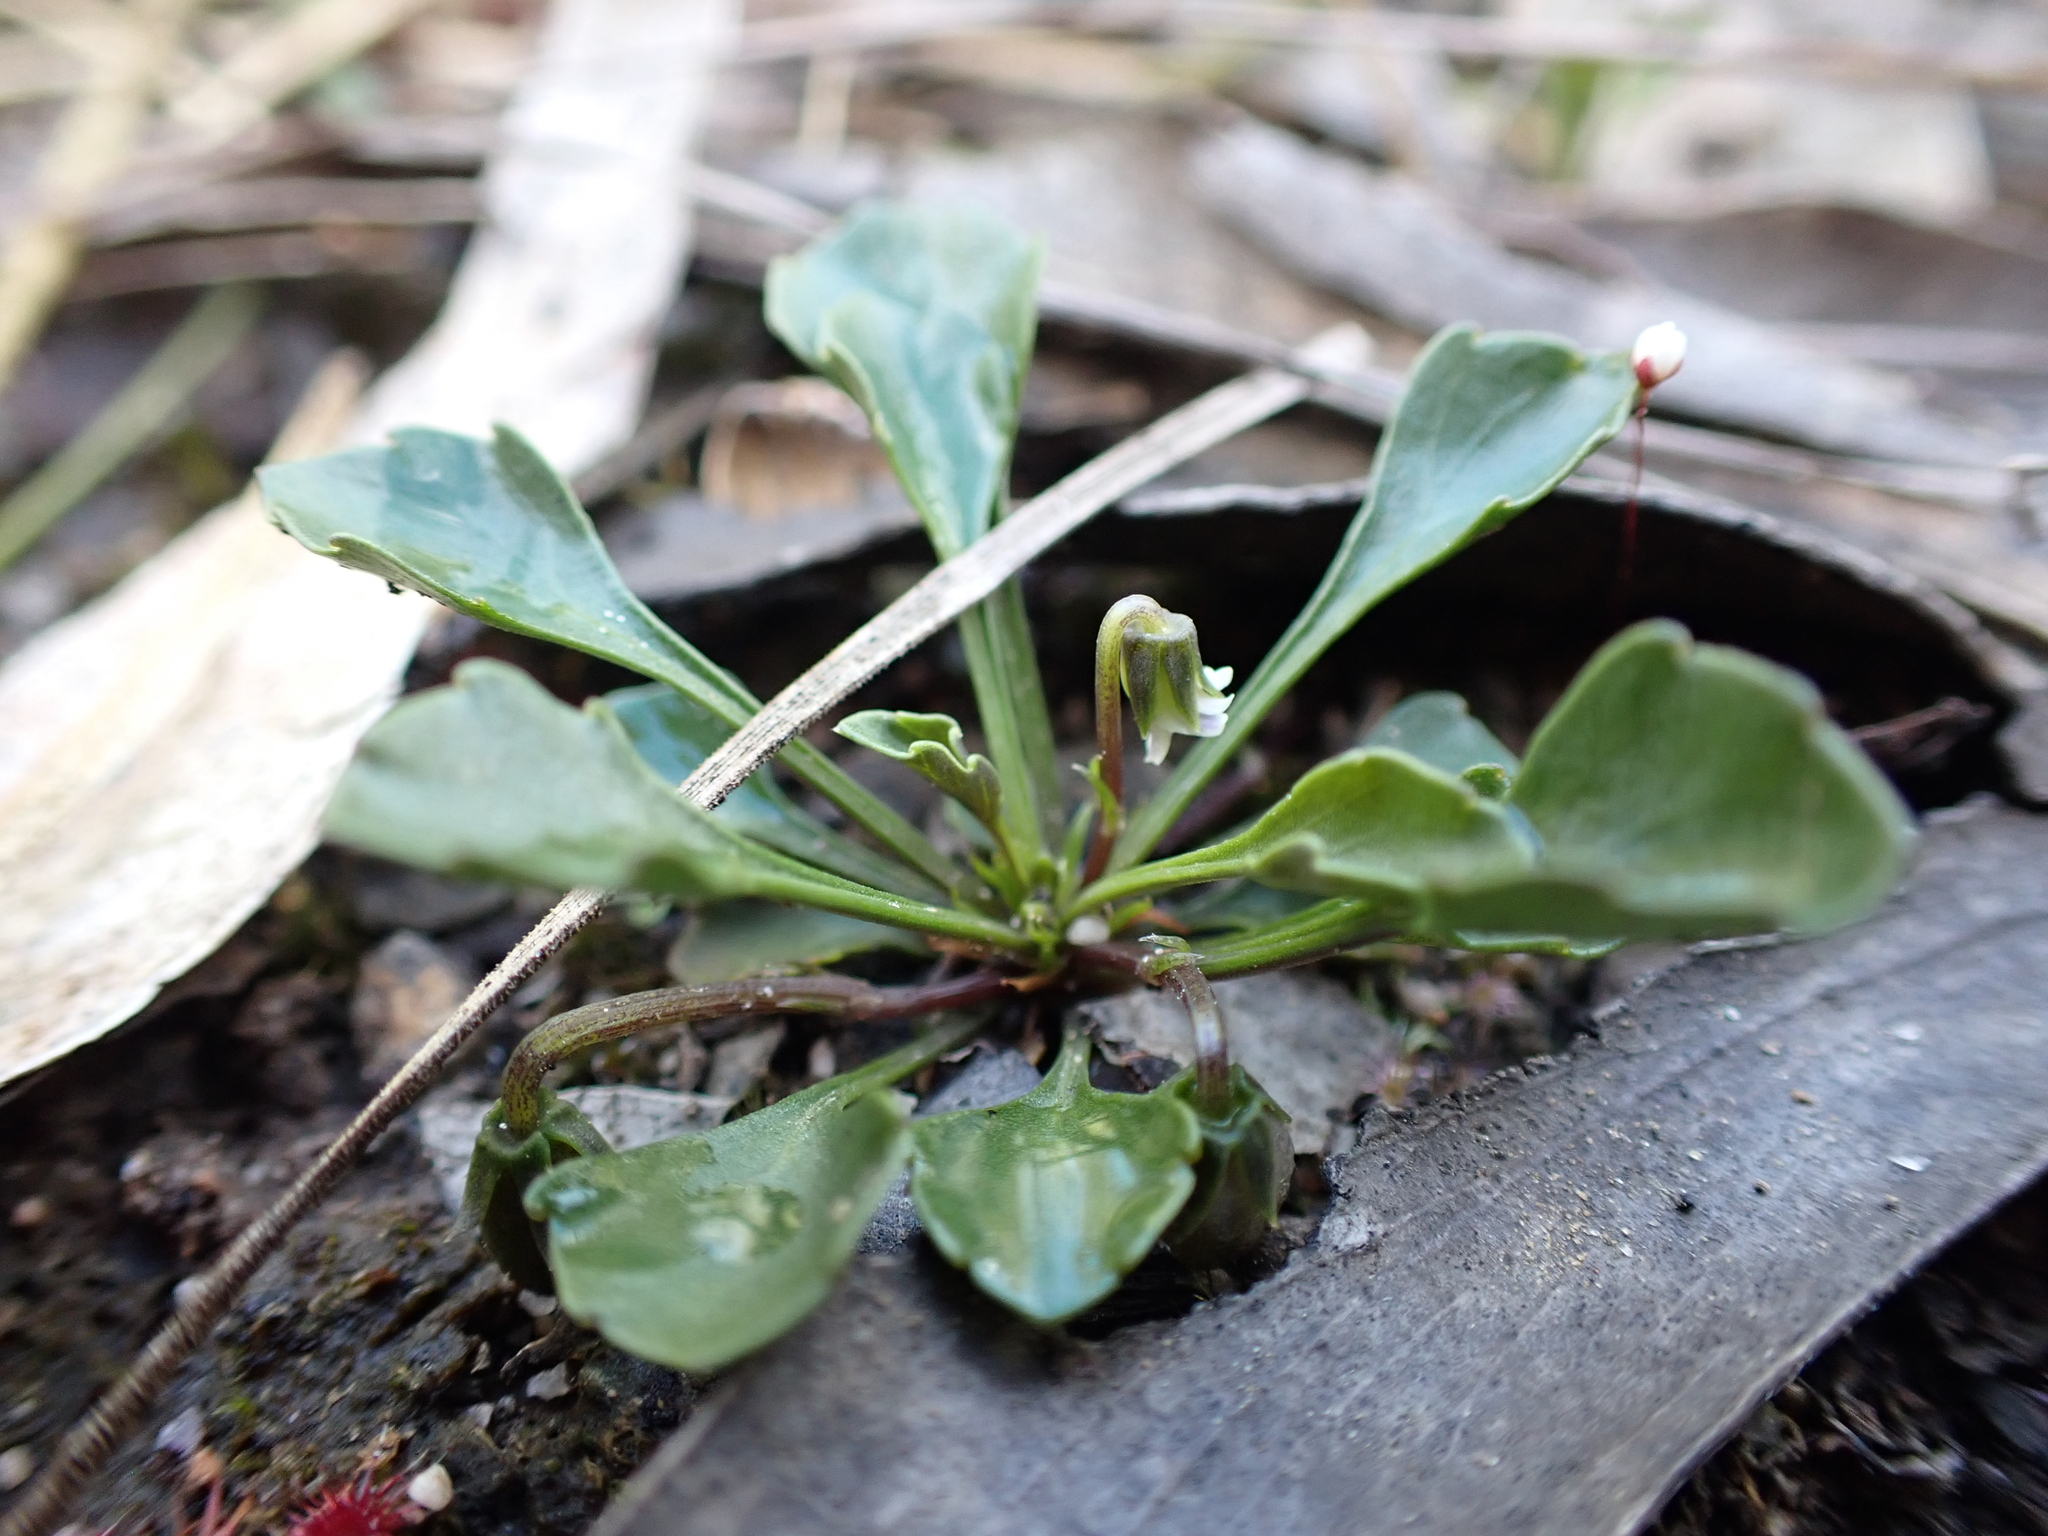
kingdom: Plantae
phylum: Tracheophyta
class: Magnoliopsida
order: Malpighiales
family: Violaceae
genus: Viola
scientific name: Viola cleistogamoides
